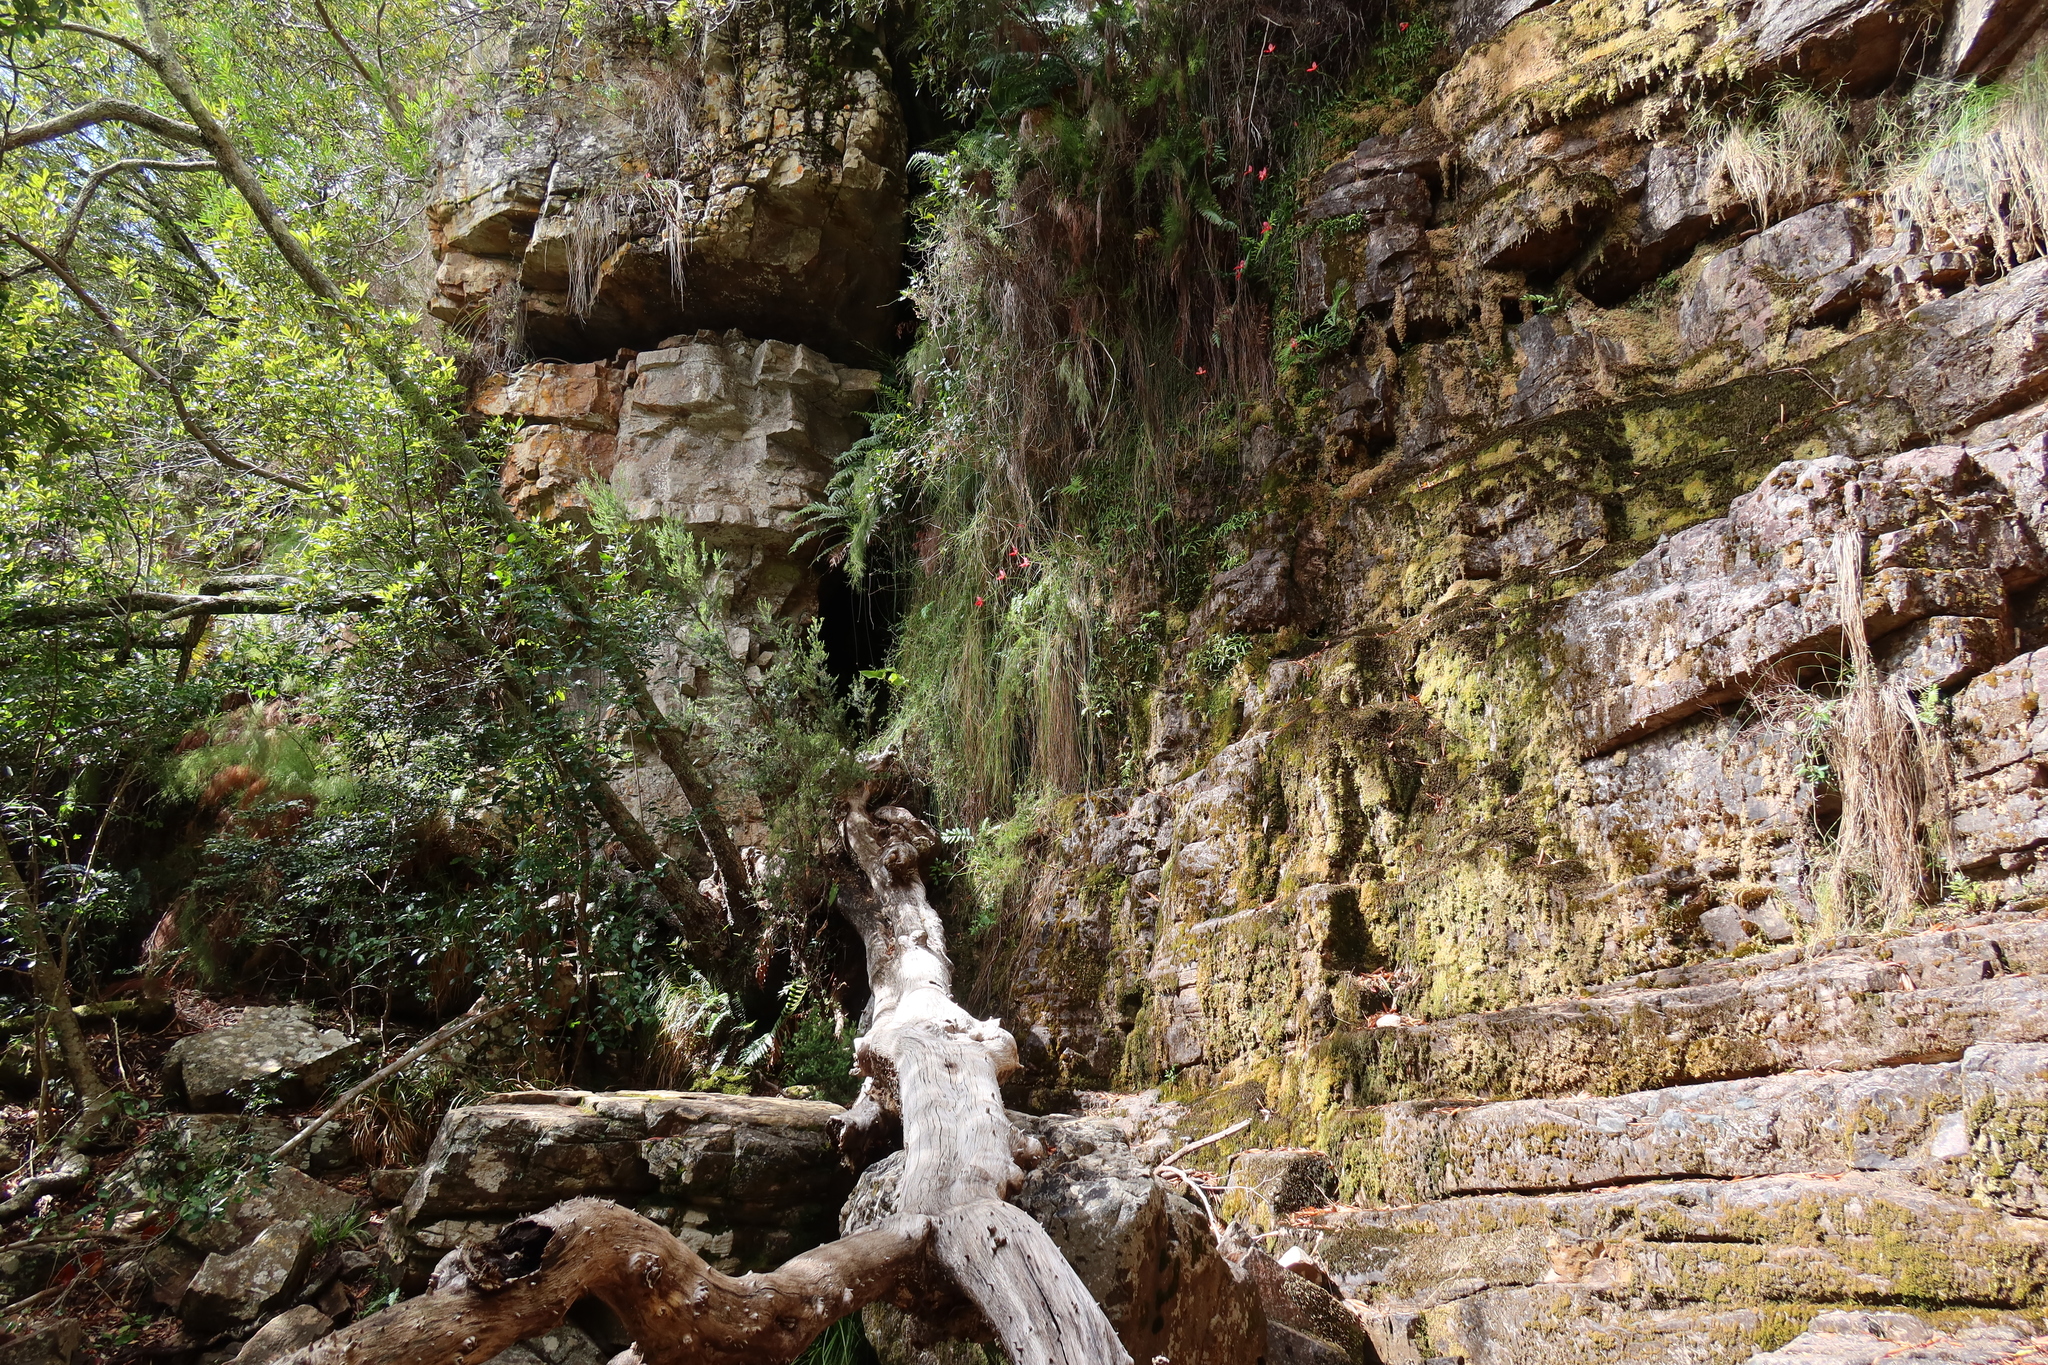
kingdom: Plantae
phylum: Tracheophyta
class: Liliopsida
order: Asparagales
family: Orchidaceae
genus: Disa
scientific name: Disa uniflora
